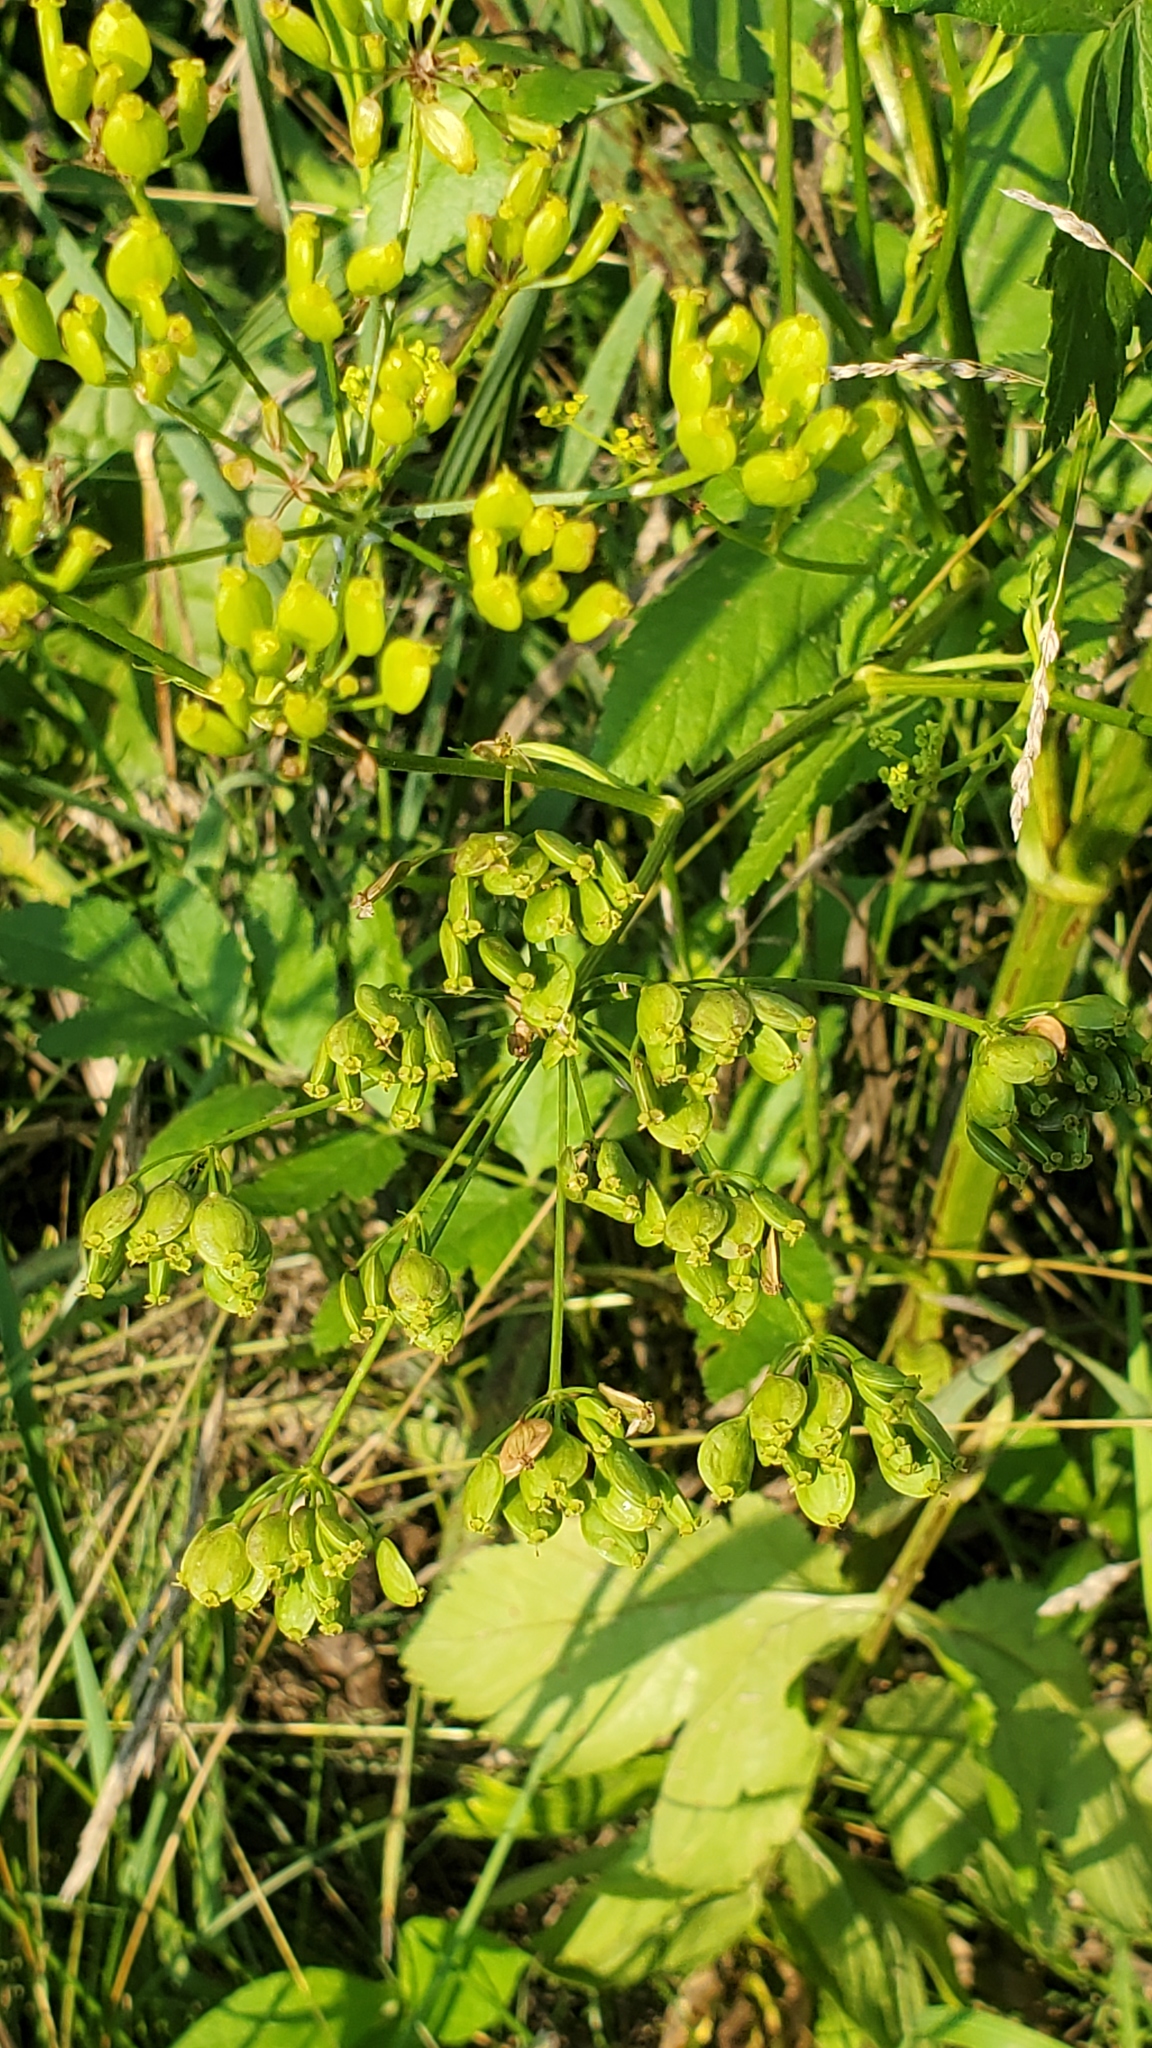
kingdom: Plantae
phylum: Tracheophyta
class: Magnoliopsida
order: Apiales
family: Apiaceae
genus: Pastinaca
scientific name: Pastinaca sativa
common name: Wild parsnip
